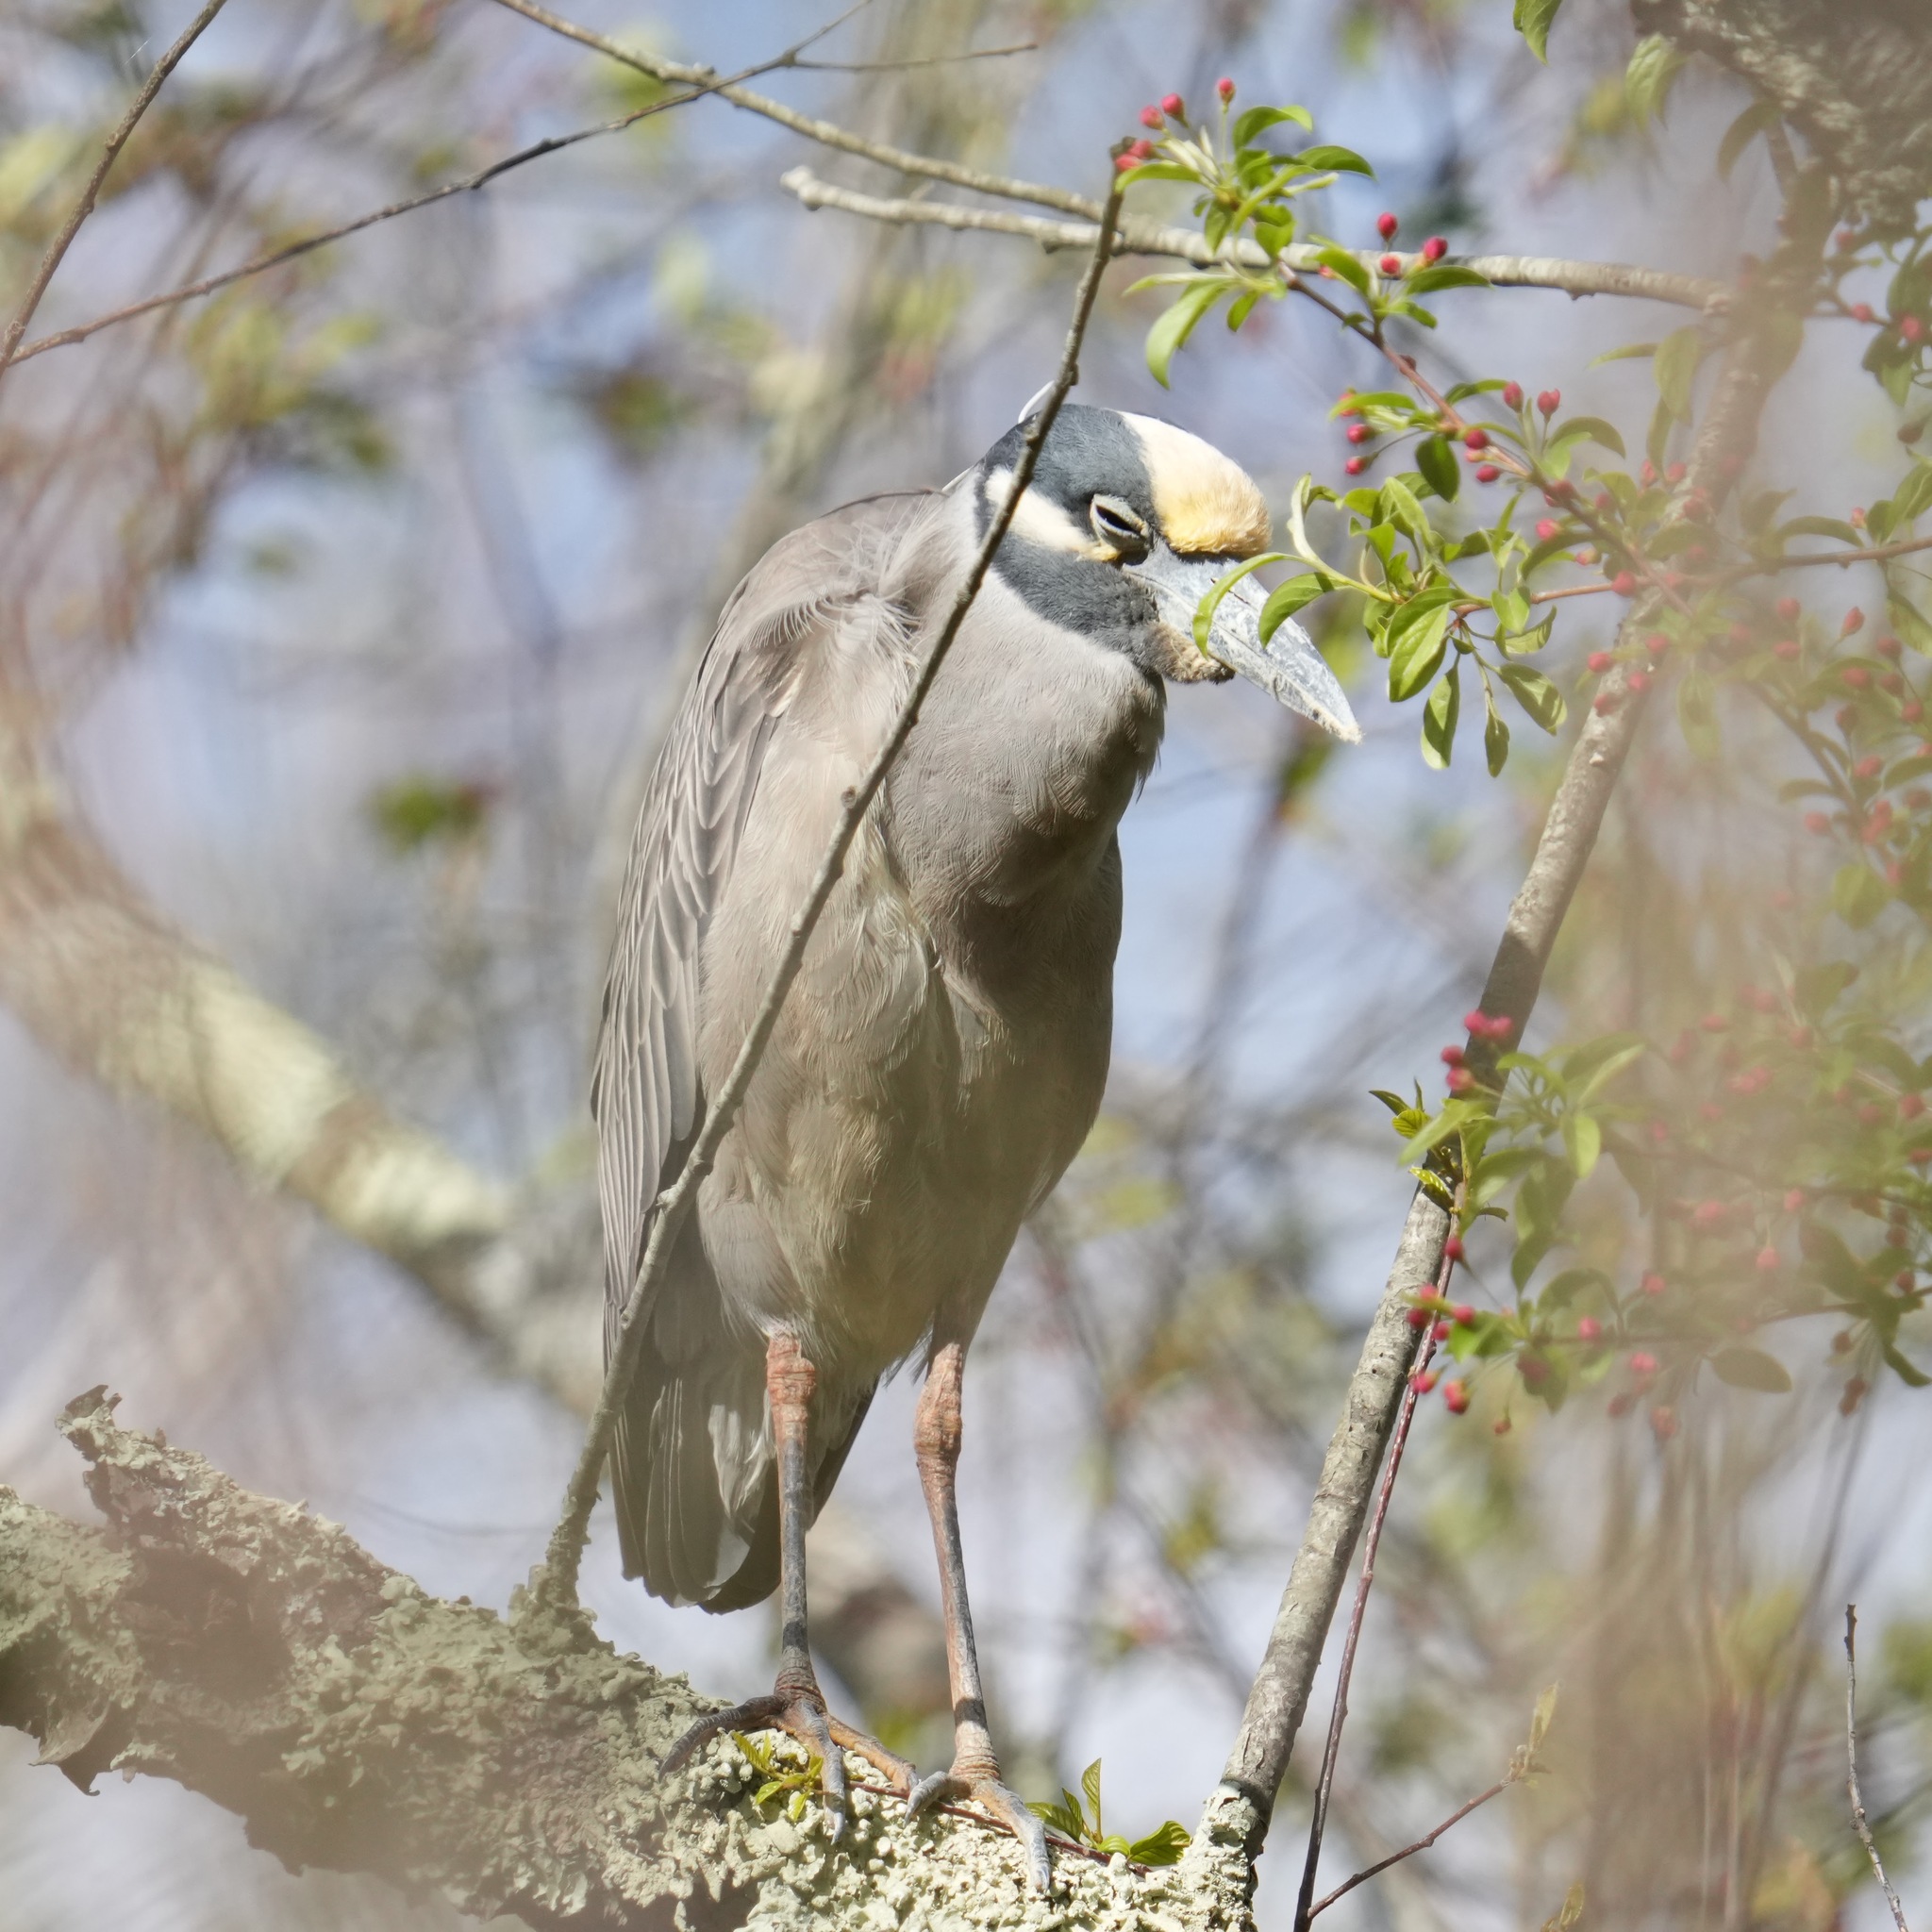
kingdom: Animalia
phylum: Chordata
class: Aves
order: Pelecaniformes
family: Ardeidae
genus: Nyctanassa
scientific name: Nyctanassa violacea
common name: Yellow-crowned night heron
